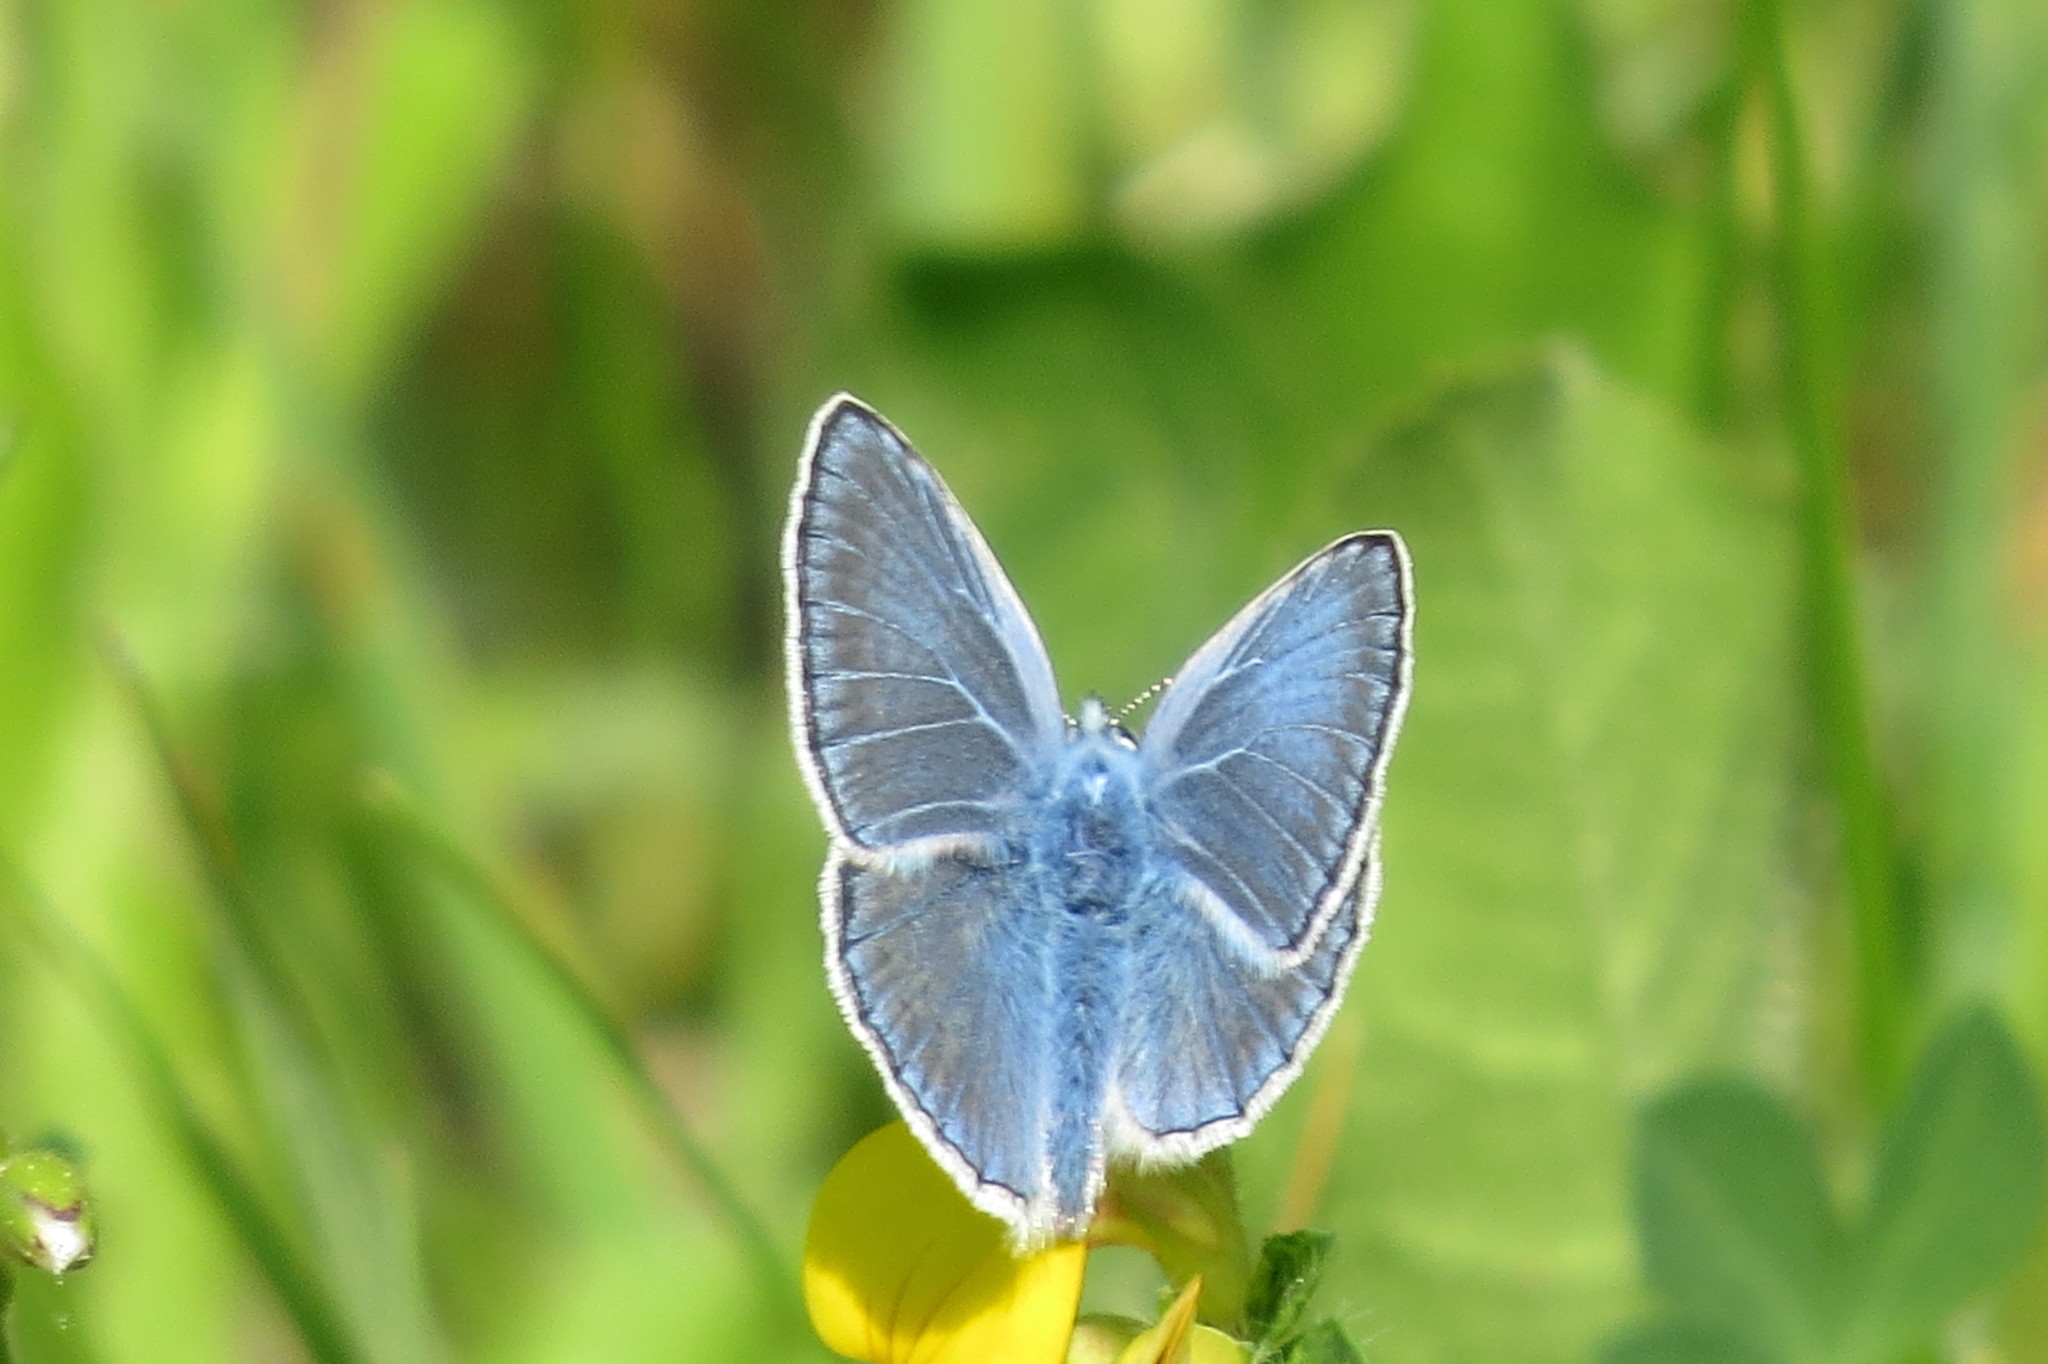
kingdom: Animalia
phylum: Arthropoda
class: Insecta
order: Lepidoptera
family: Lycaenidae
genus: Polyommatus
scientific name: Polyommatus icarus
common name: Common blue
